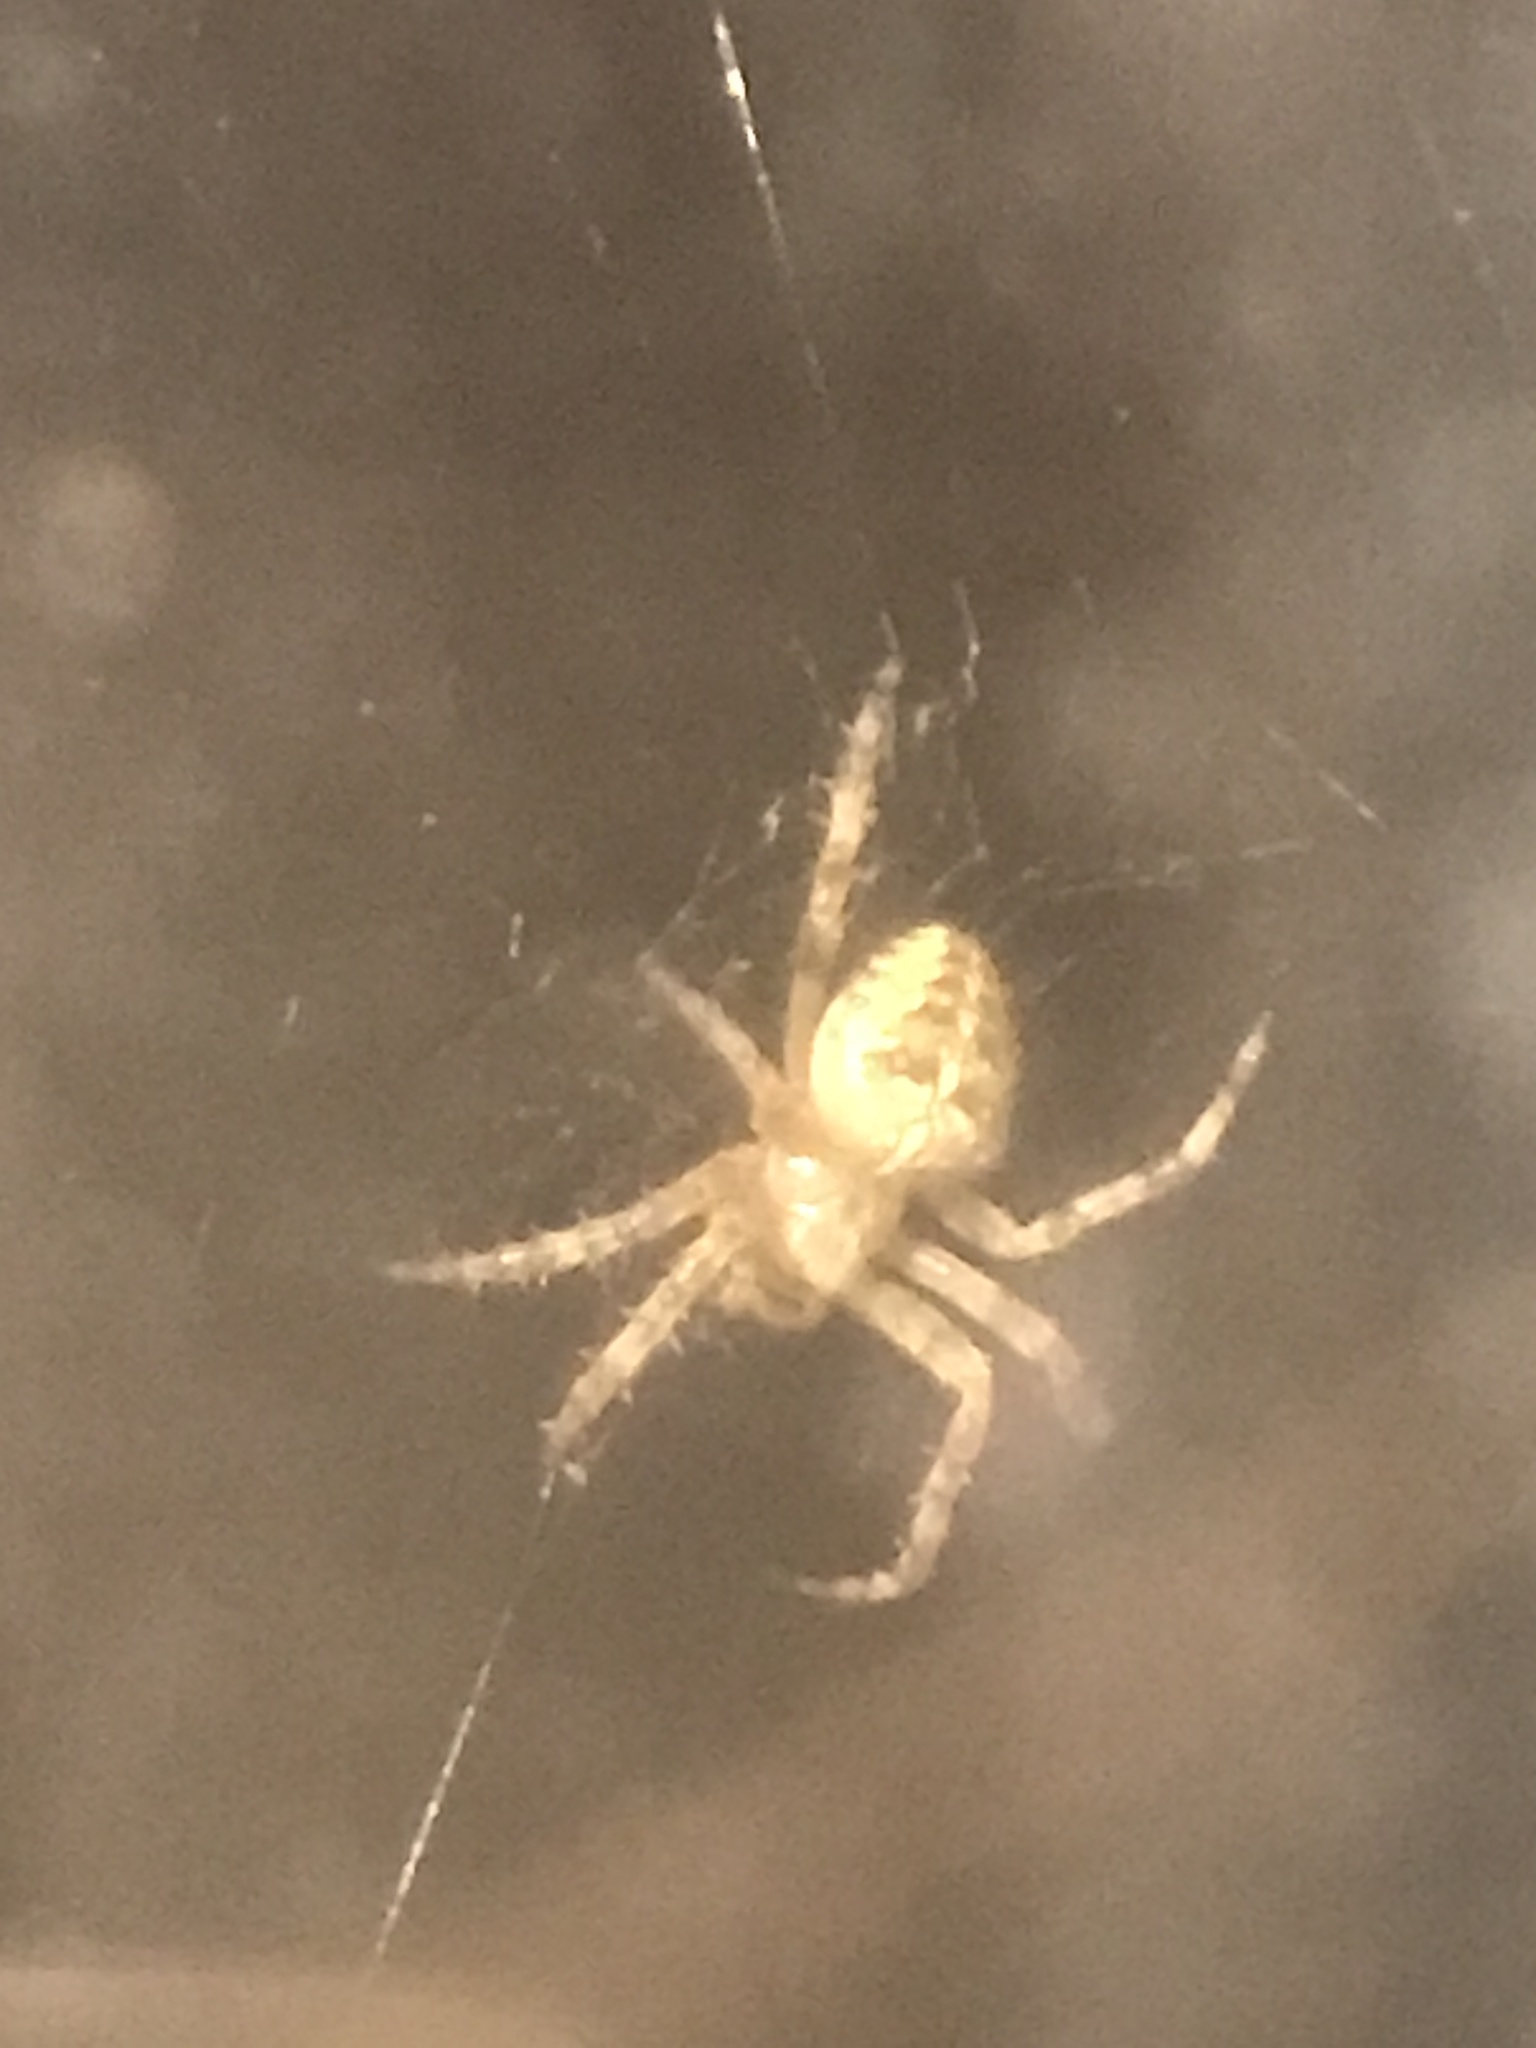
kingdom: Animalia
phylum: Arthropoda
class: Arachnida
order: Araneae
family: Araneidae
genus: Araneus
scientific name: Araneus diadematus
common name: Cross orbweaver
